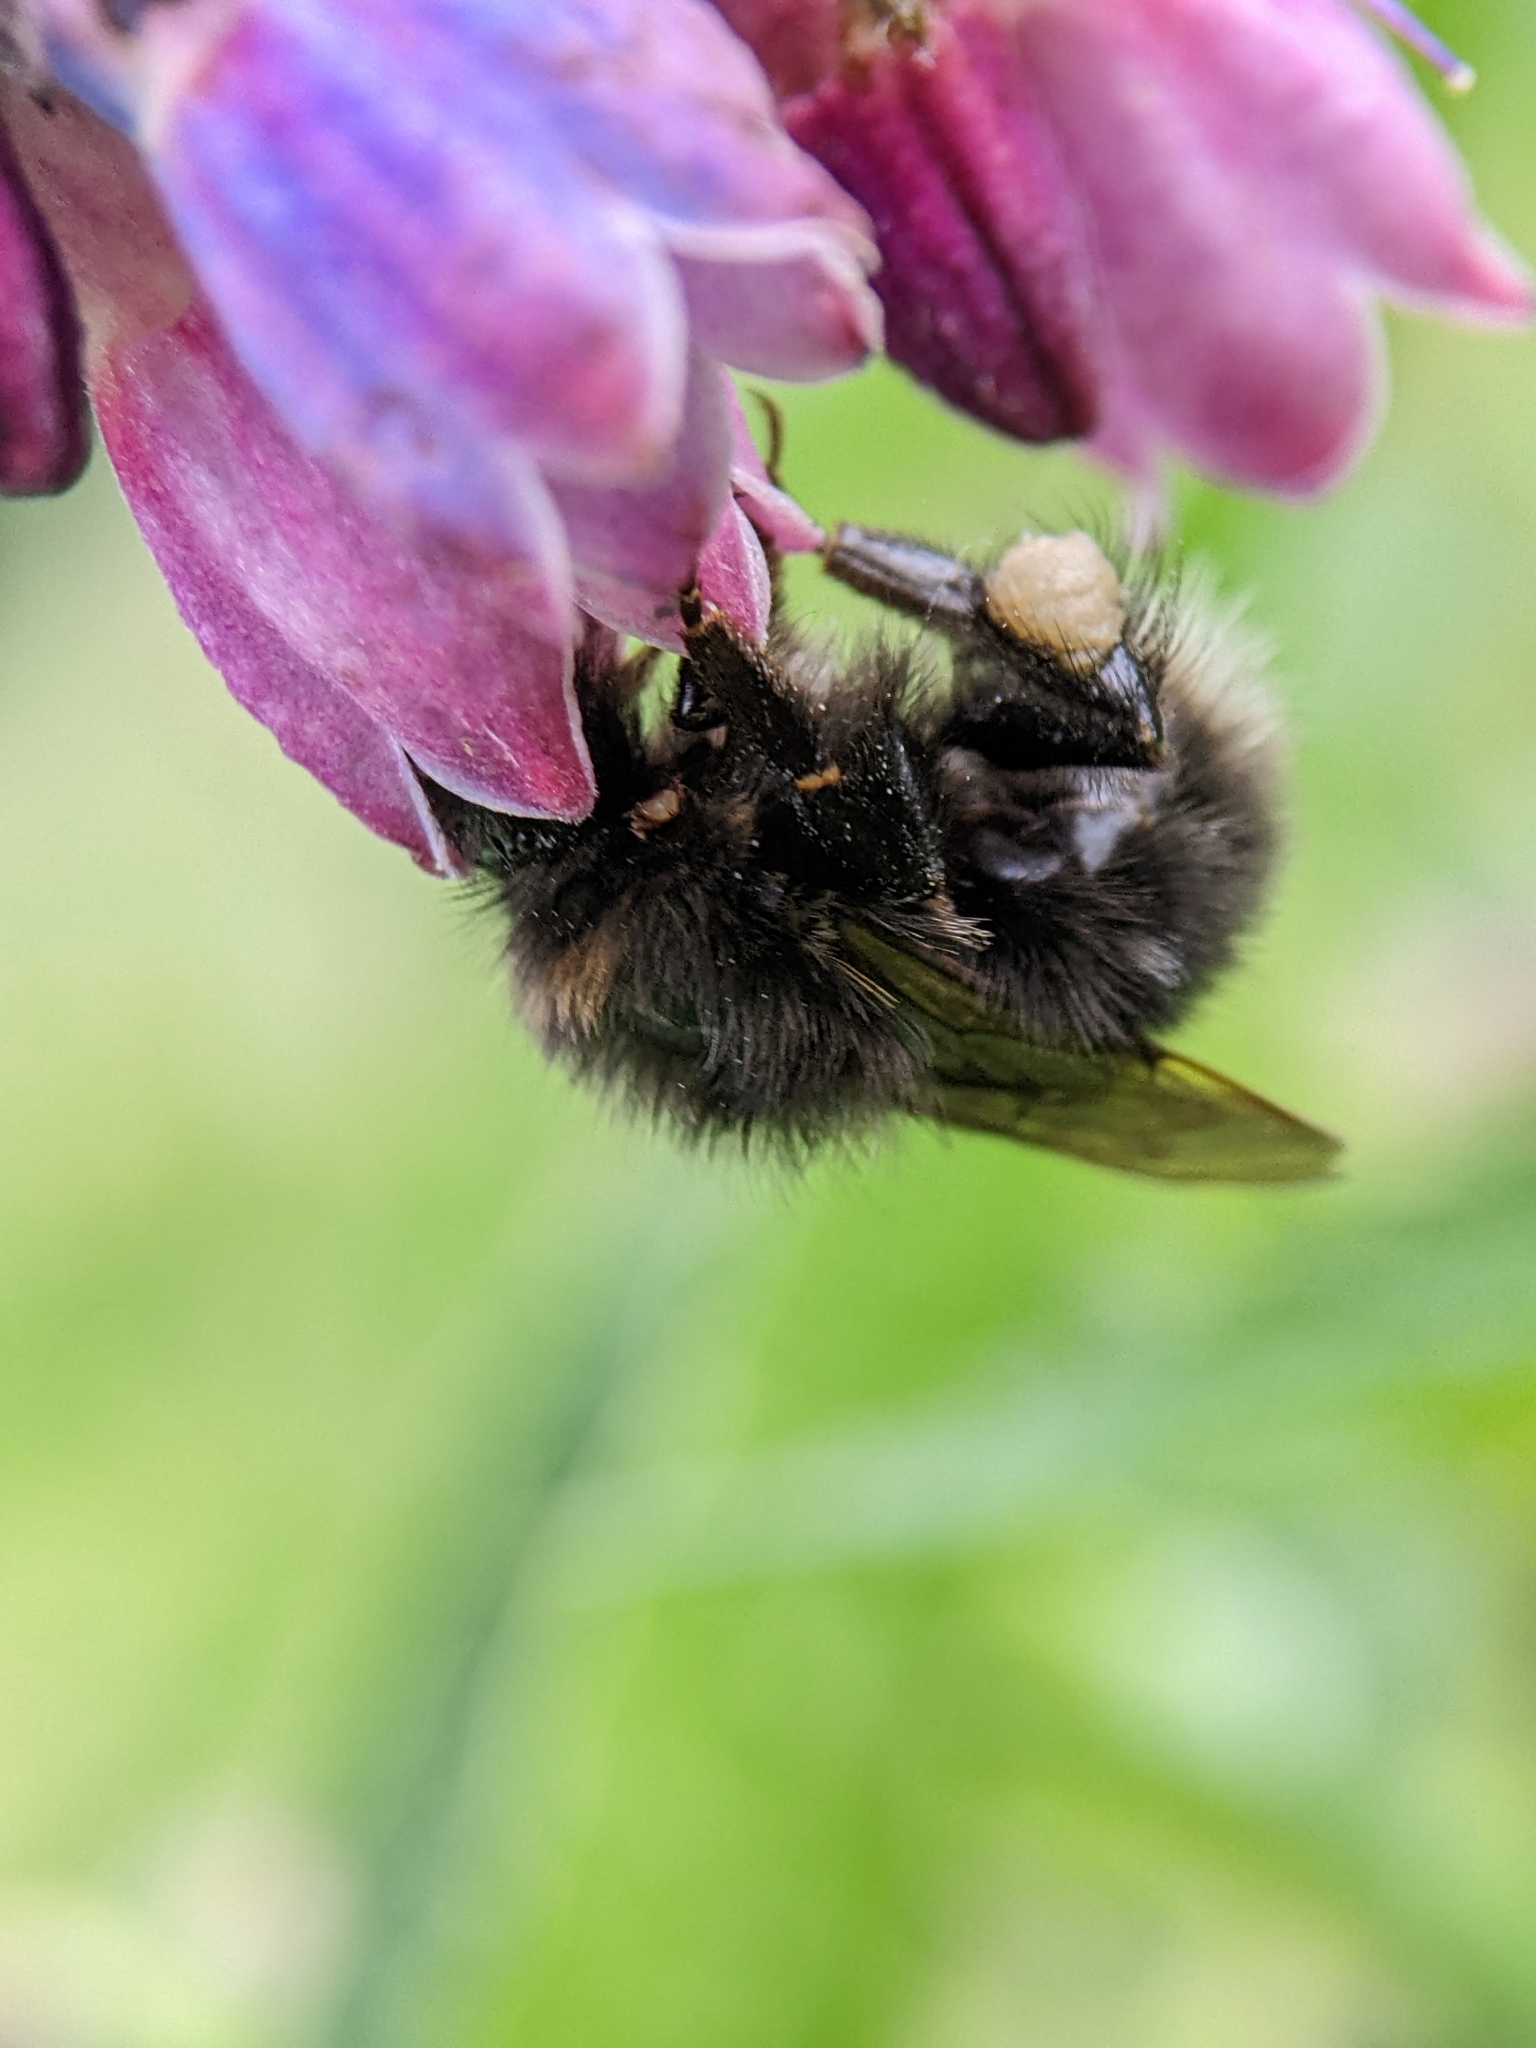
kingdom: Animalia
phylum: Arthropoda
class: Insecta
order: Hymenoptera
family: Apidae
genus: Bombus
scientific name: Bombus hypnorum
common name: New garden bumblebee
